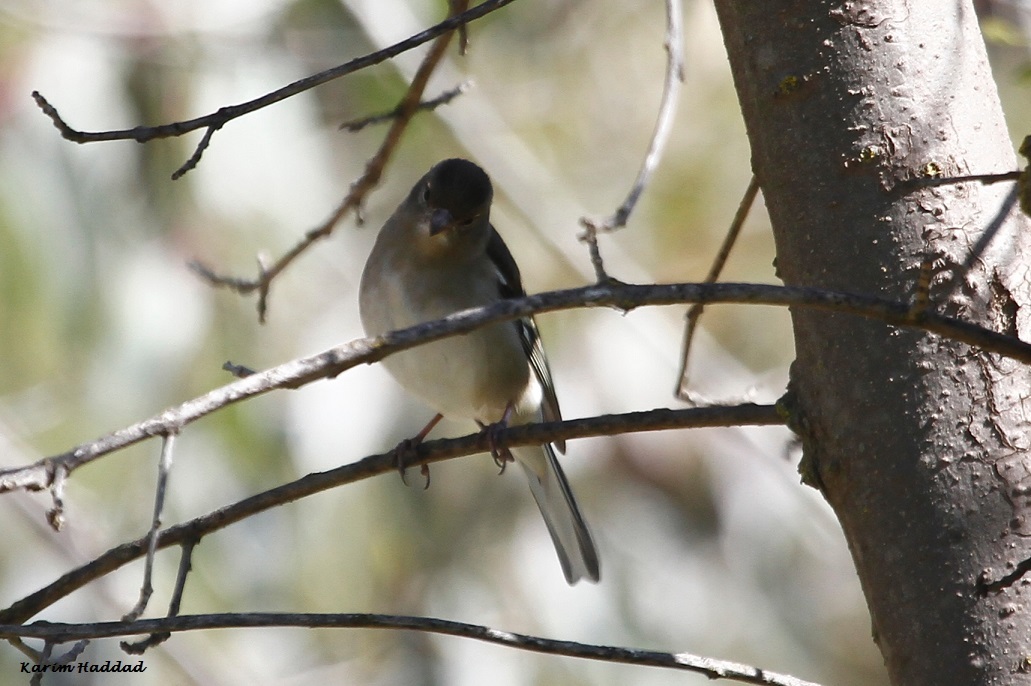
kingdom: Animalia
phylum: Chordata
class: Aves
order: Passeriformes
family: Fringillidae
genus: Fringilla
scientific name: Fringilla spodiogenys
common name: African chaffinch
